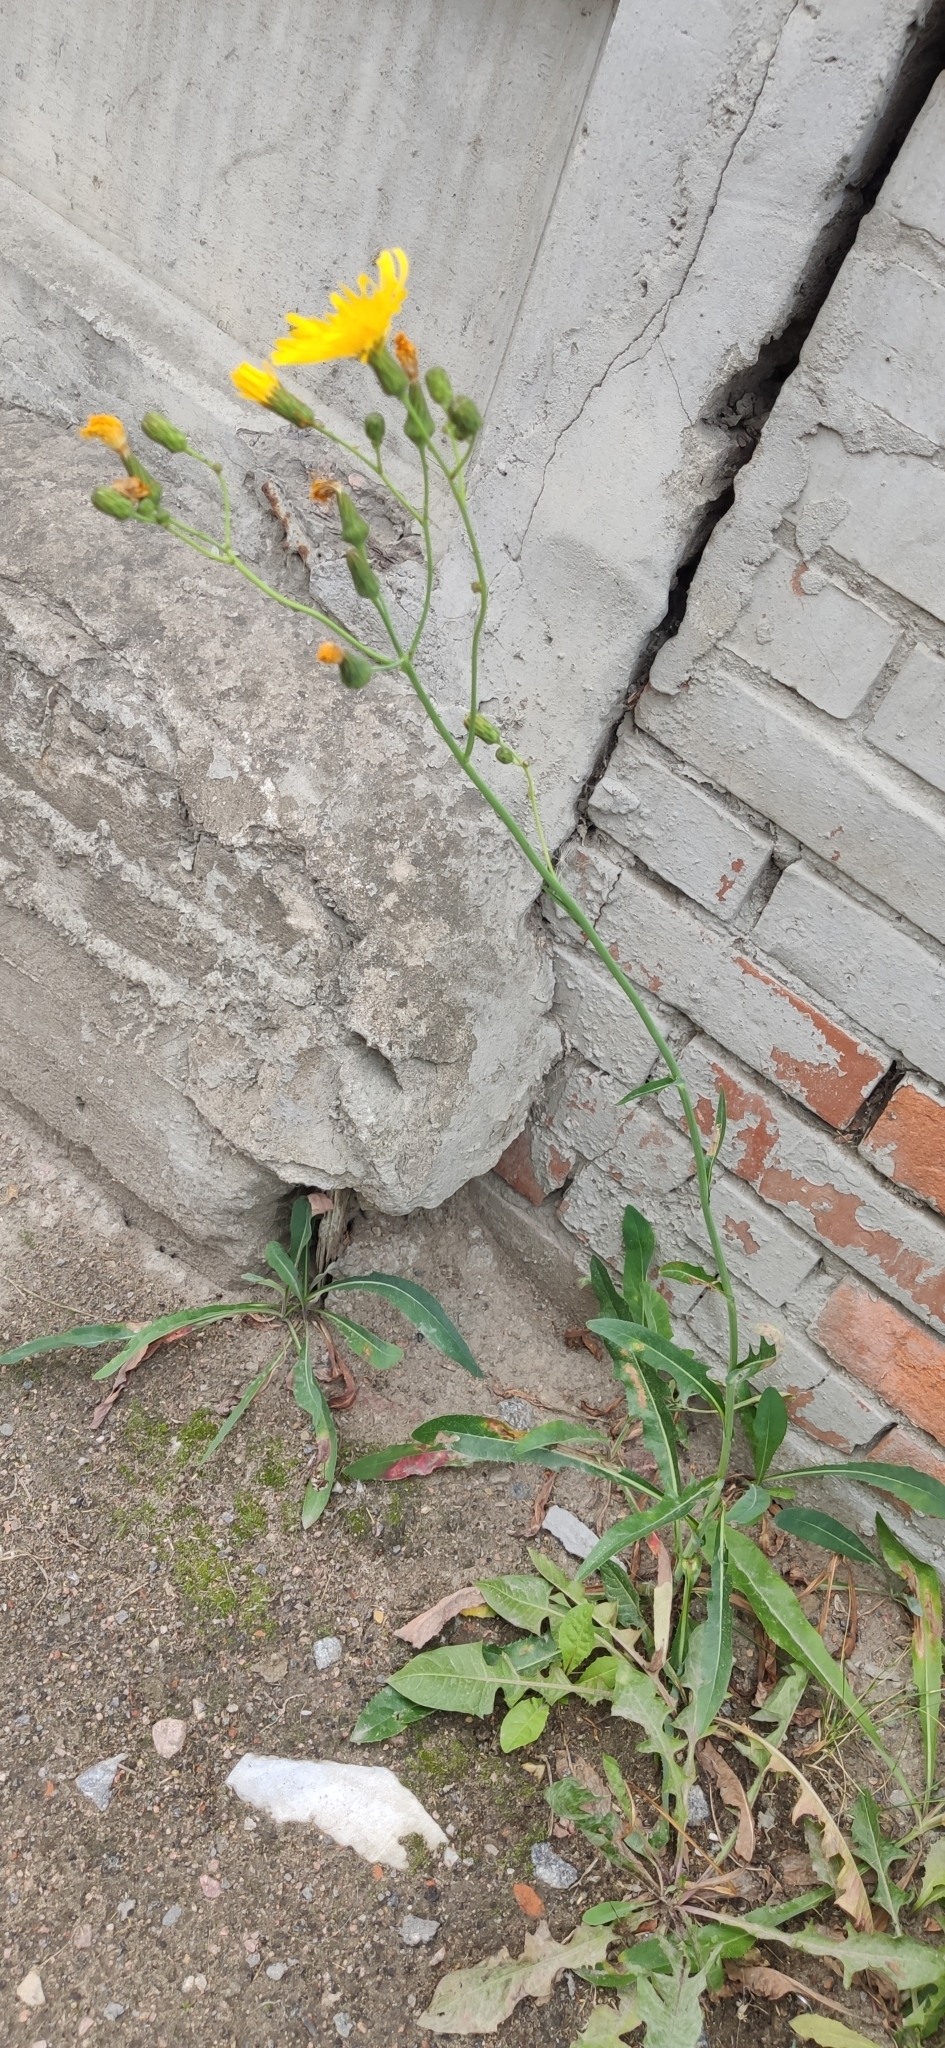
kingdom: Plantae
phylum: Tracheophyta
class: Magnoliopsida
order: Asterales
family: Asteraceae
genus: Sonchus
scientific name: Sonchus arvensis
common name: Perennial sow-thistle
